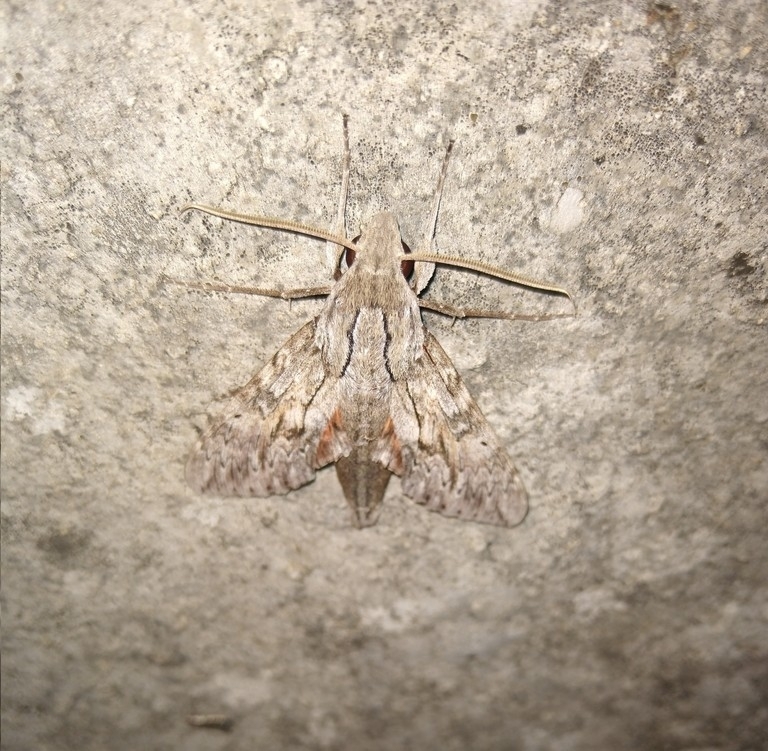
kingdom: Animalia
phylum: Arthropoda
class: Insecta
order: Lepidoptera
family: Sphingidae
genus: Erinnyis
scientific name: Erinnyis yucatana
